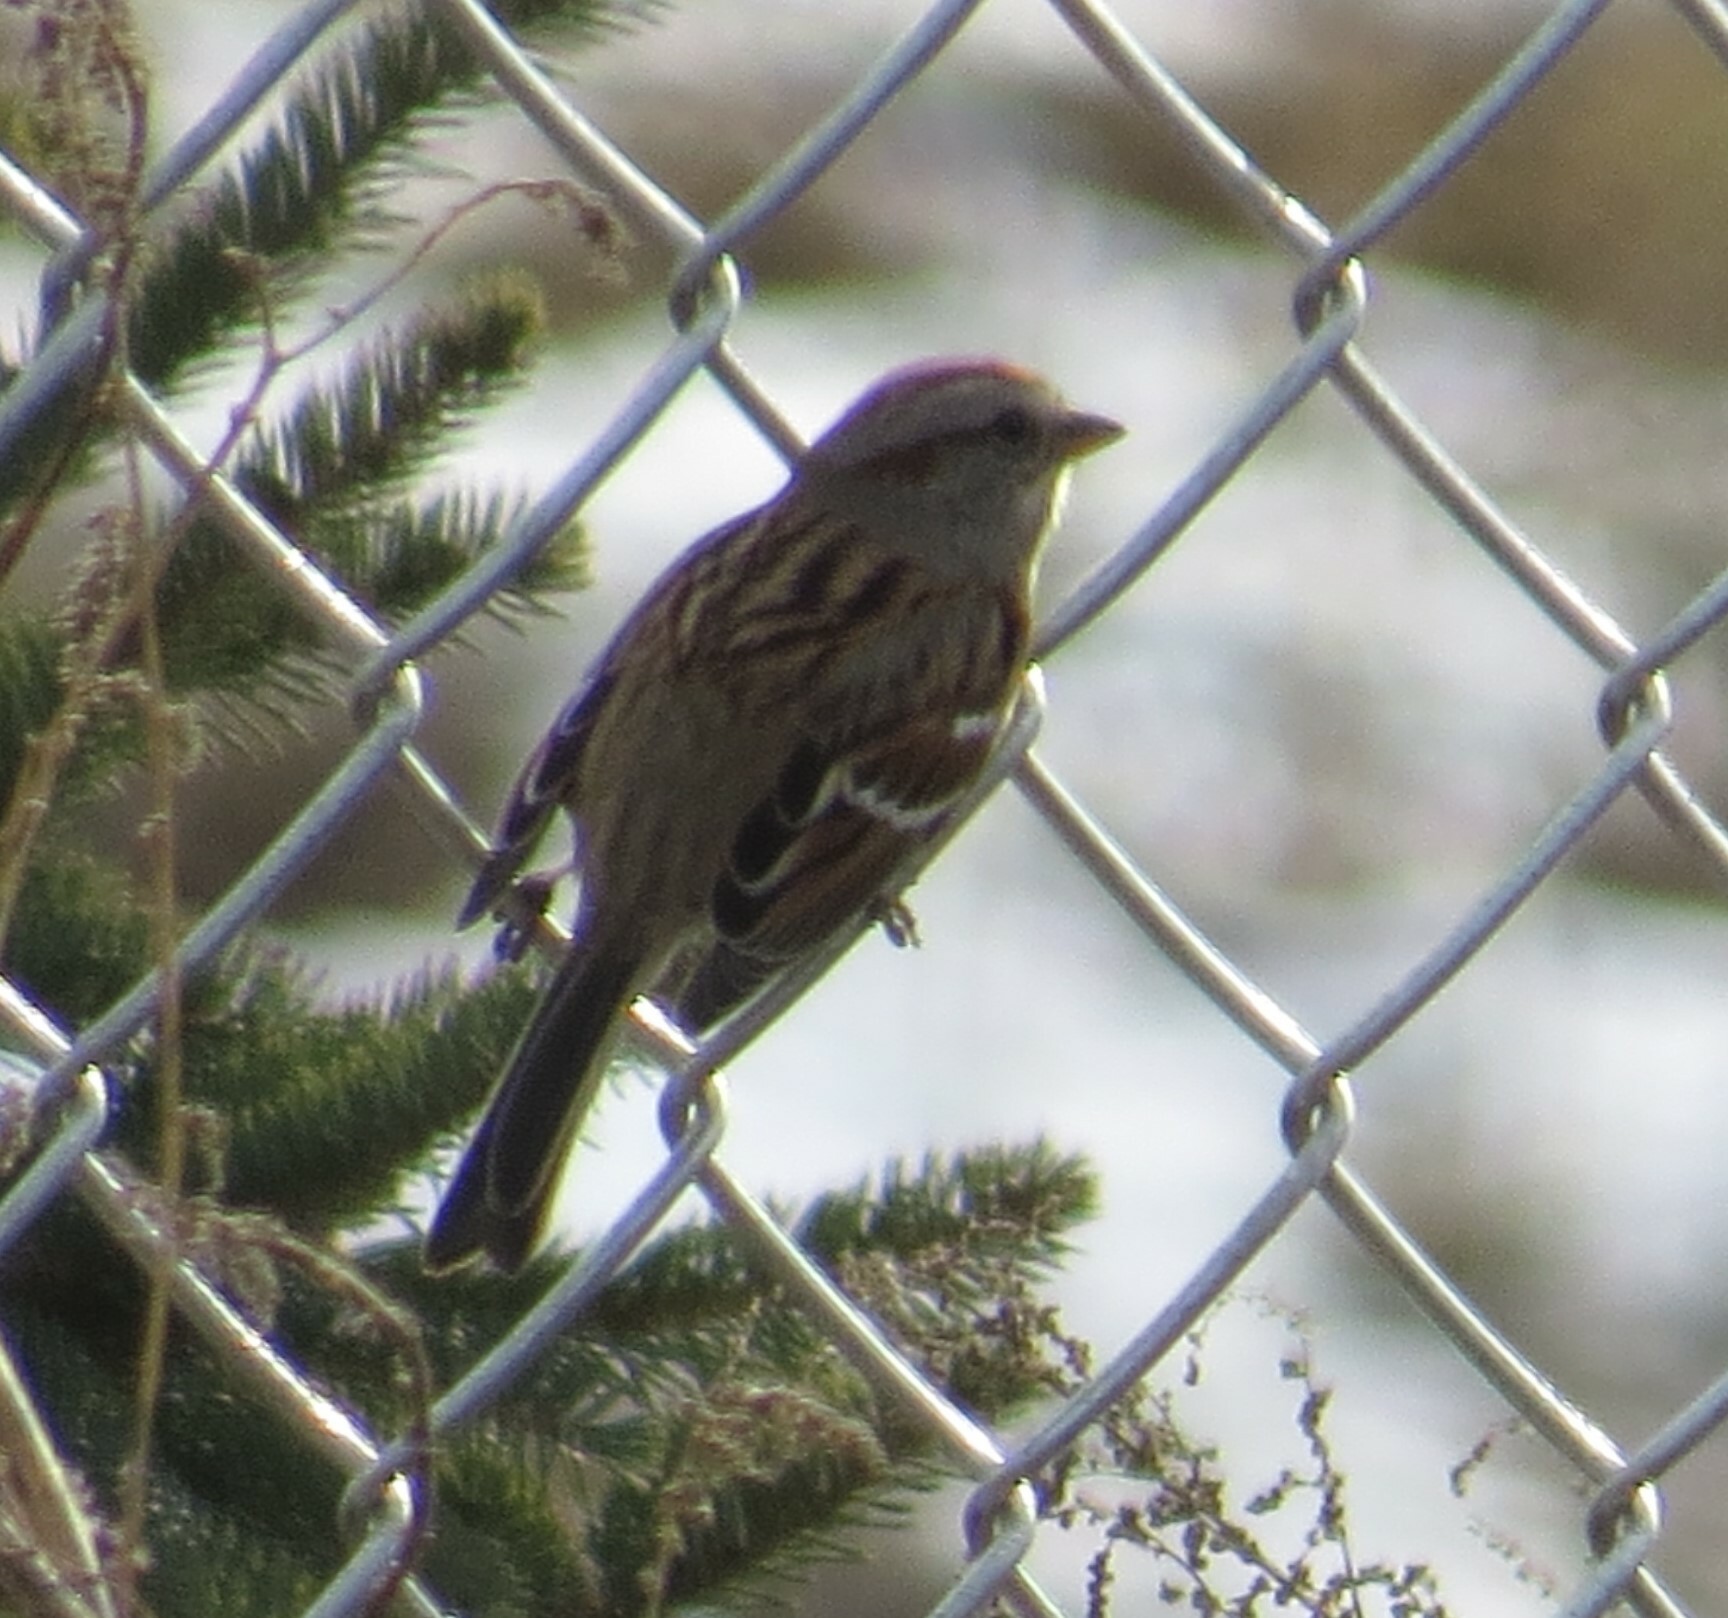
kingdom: Animalia
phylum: Chordata
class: Aves
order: Passeriformes
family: Passerellidae
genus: Spizelloides
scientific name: Spizelloides arborea
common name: American tree sparrow
